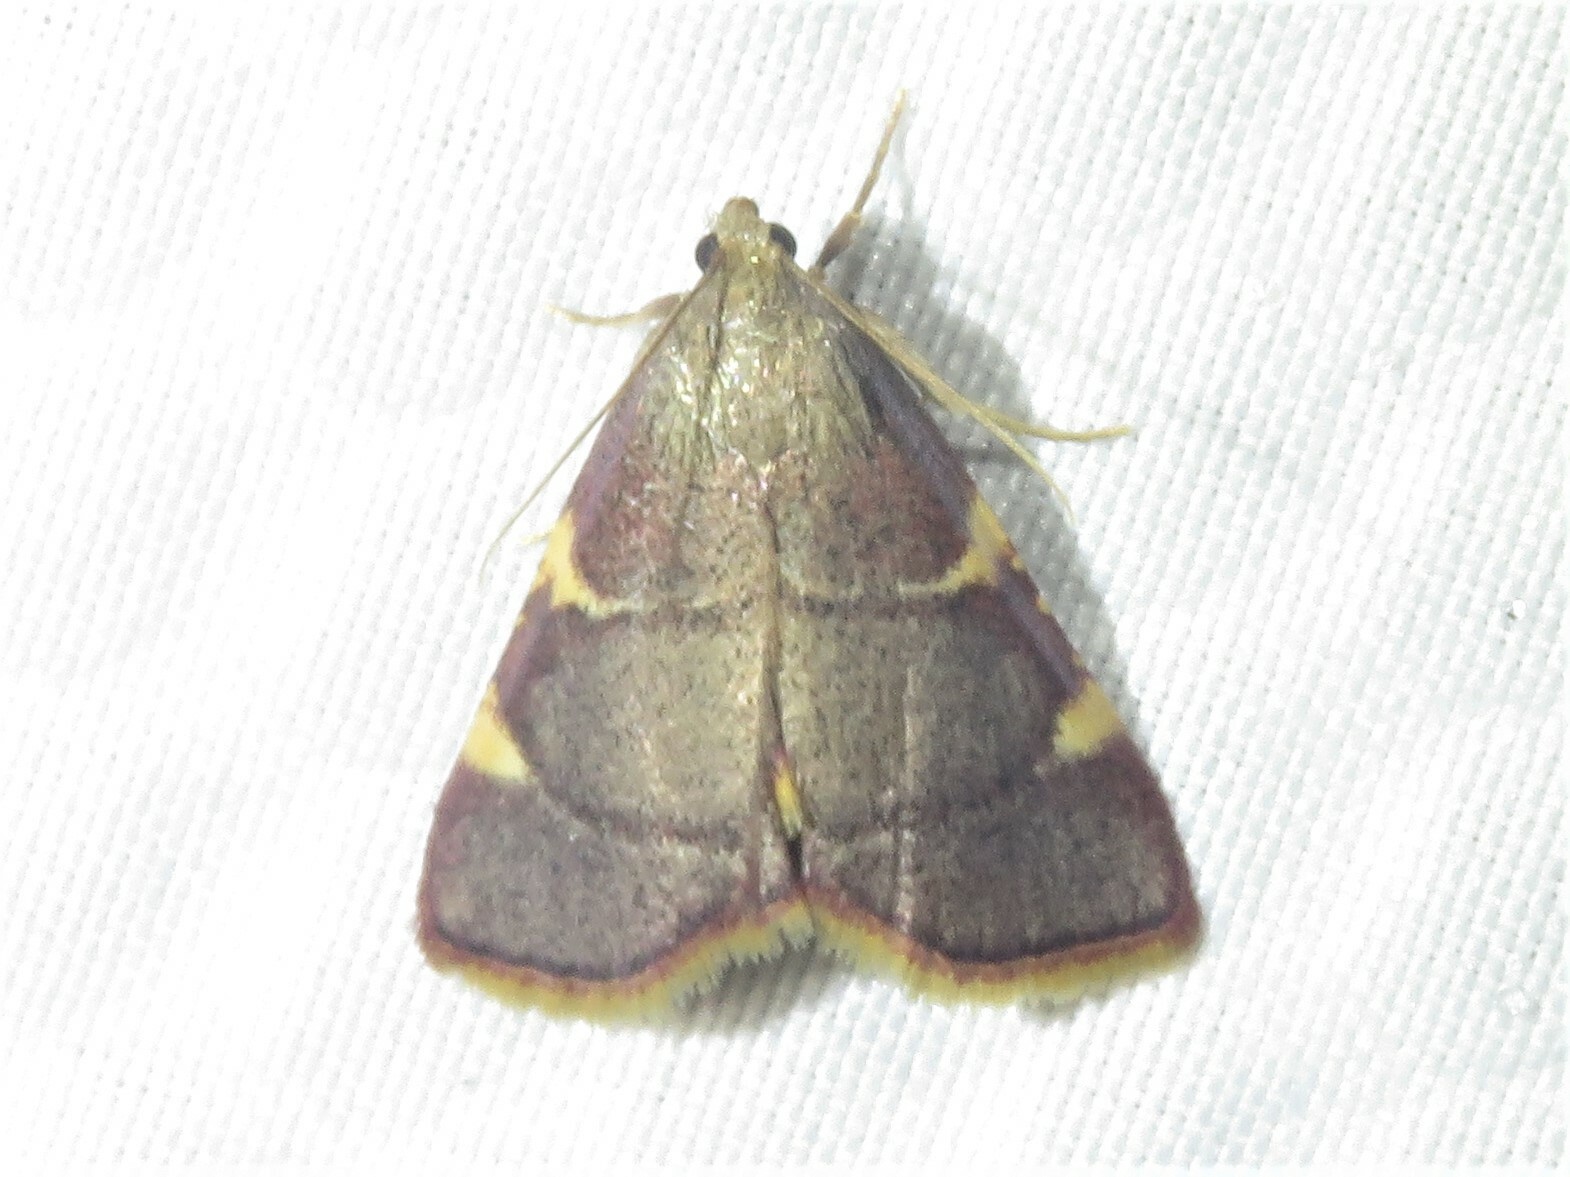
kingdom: Animalia
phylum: Arthropoda
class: Insecta
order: Lepidoptera
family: Pyralidae
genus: Hypsopygia
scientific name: Hypsopygia olinalis
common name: Yellow-fringed dolichomia moth
